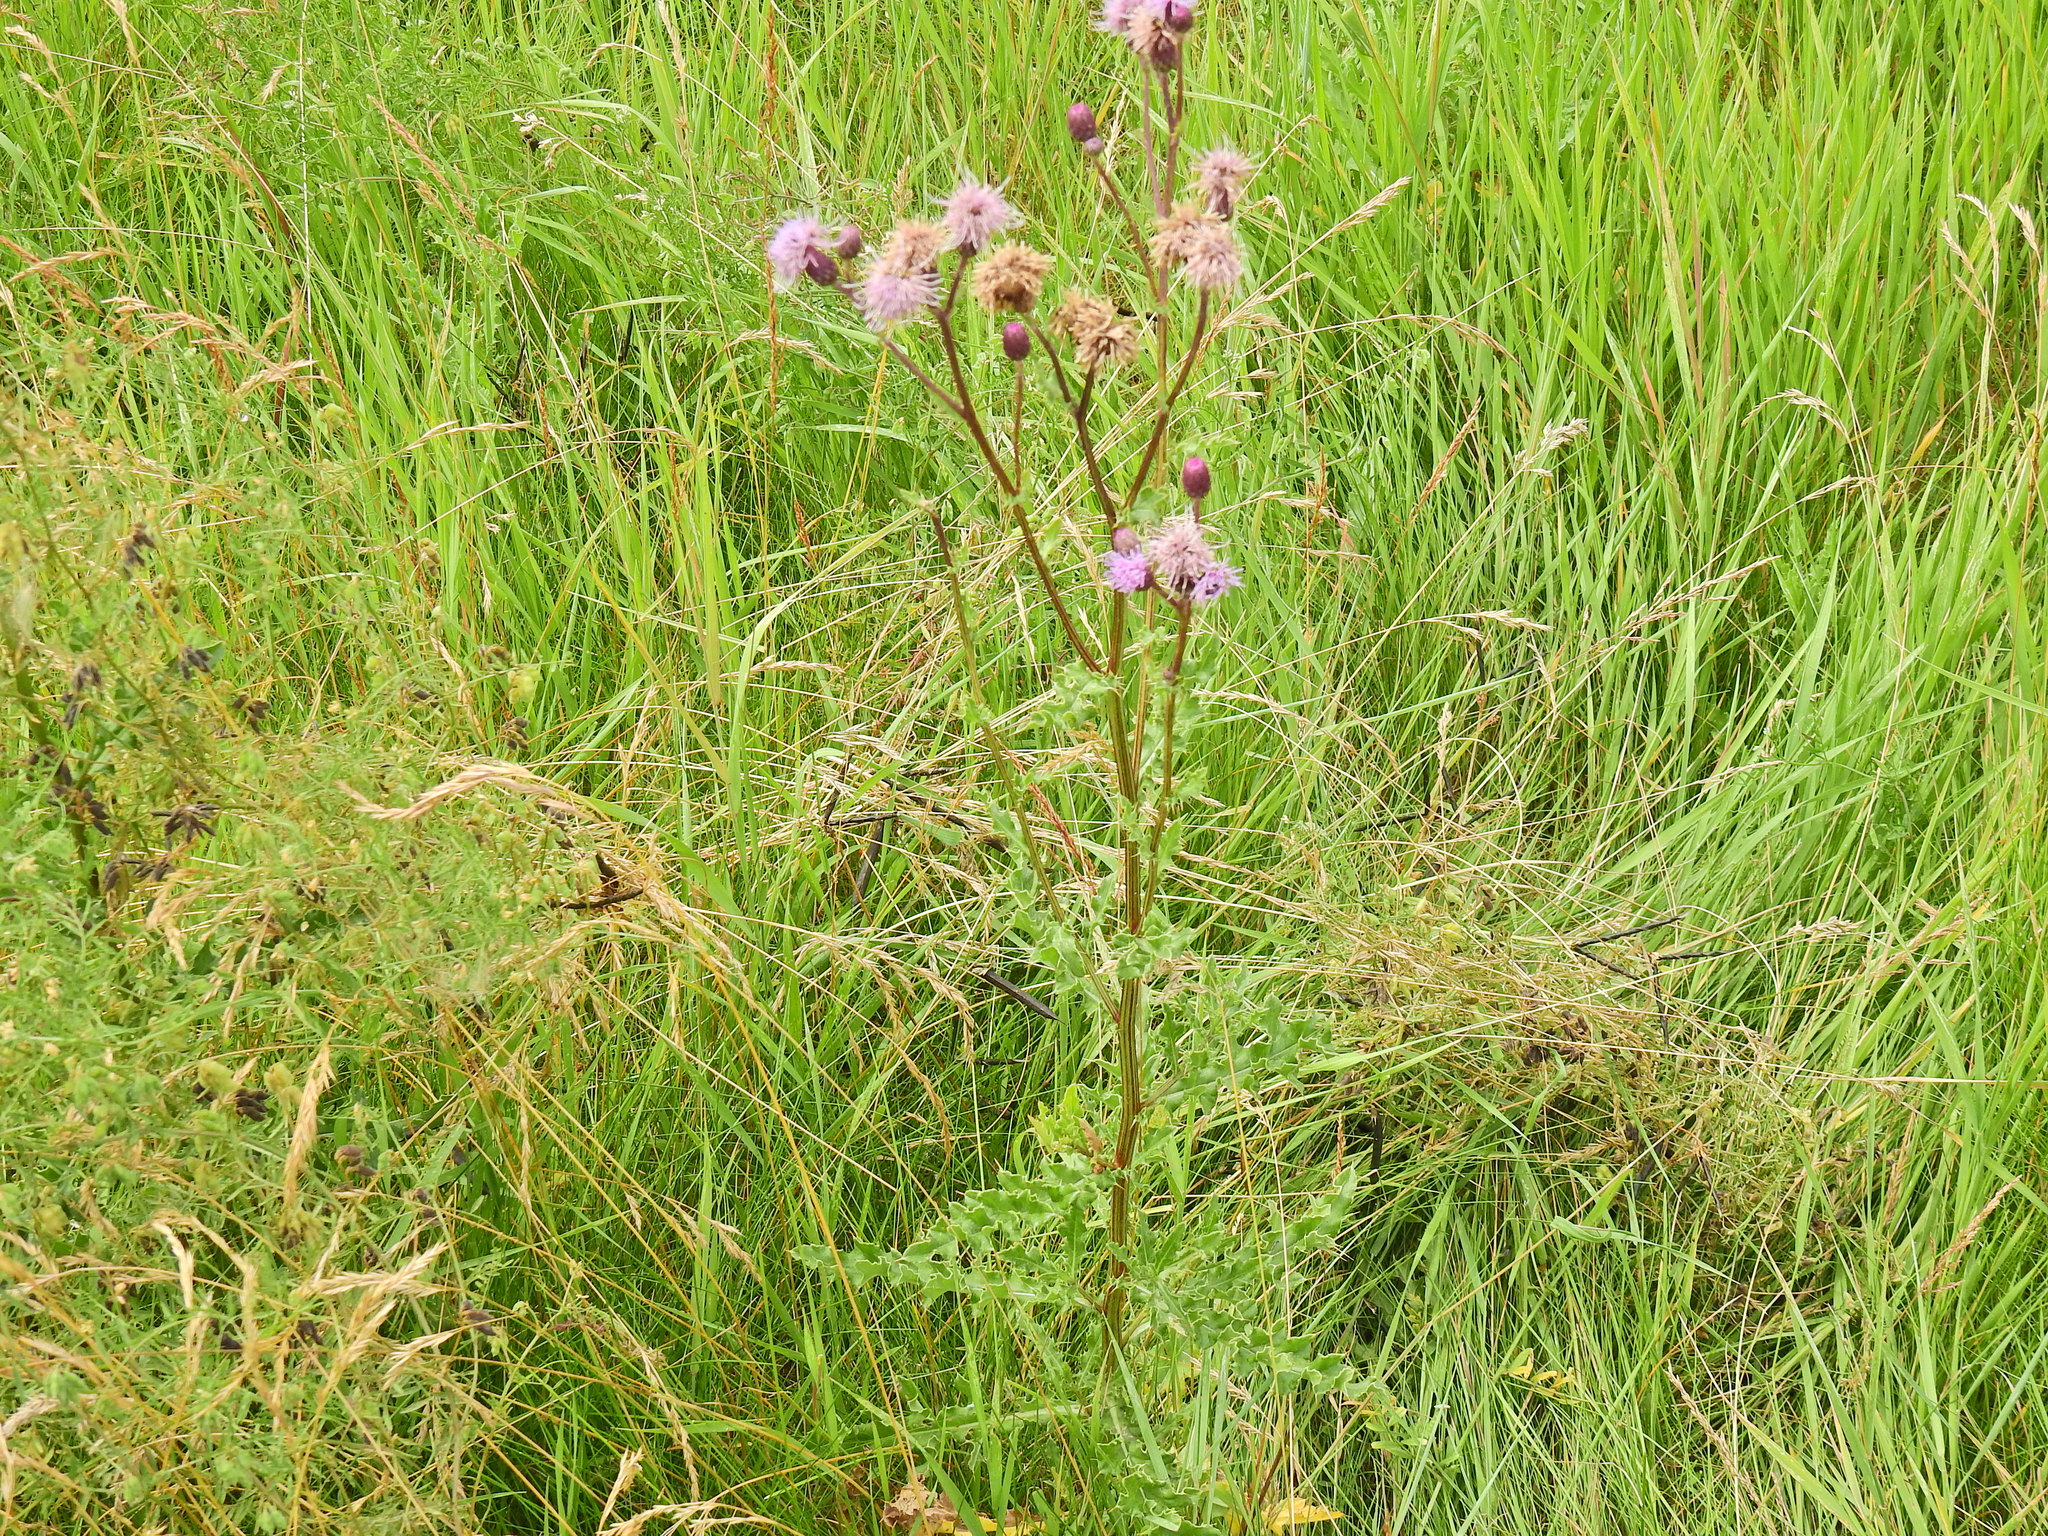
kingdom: Plantae
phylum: Tracheophyta
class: Magnoliopsida
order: Asterales
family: Asteraceae
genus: Cirsium
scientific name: Cirsium arvense
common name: Creeping thistle
